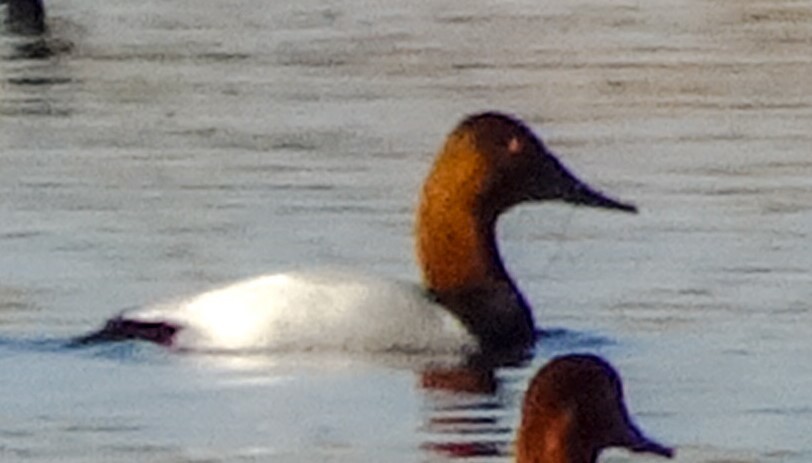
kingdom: Animalia
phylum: Chordata
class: Aves
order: Anseriformes
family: Anatidae
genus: Aythya
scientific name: Aythya valisineria
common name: Canvasback
